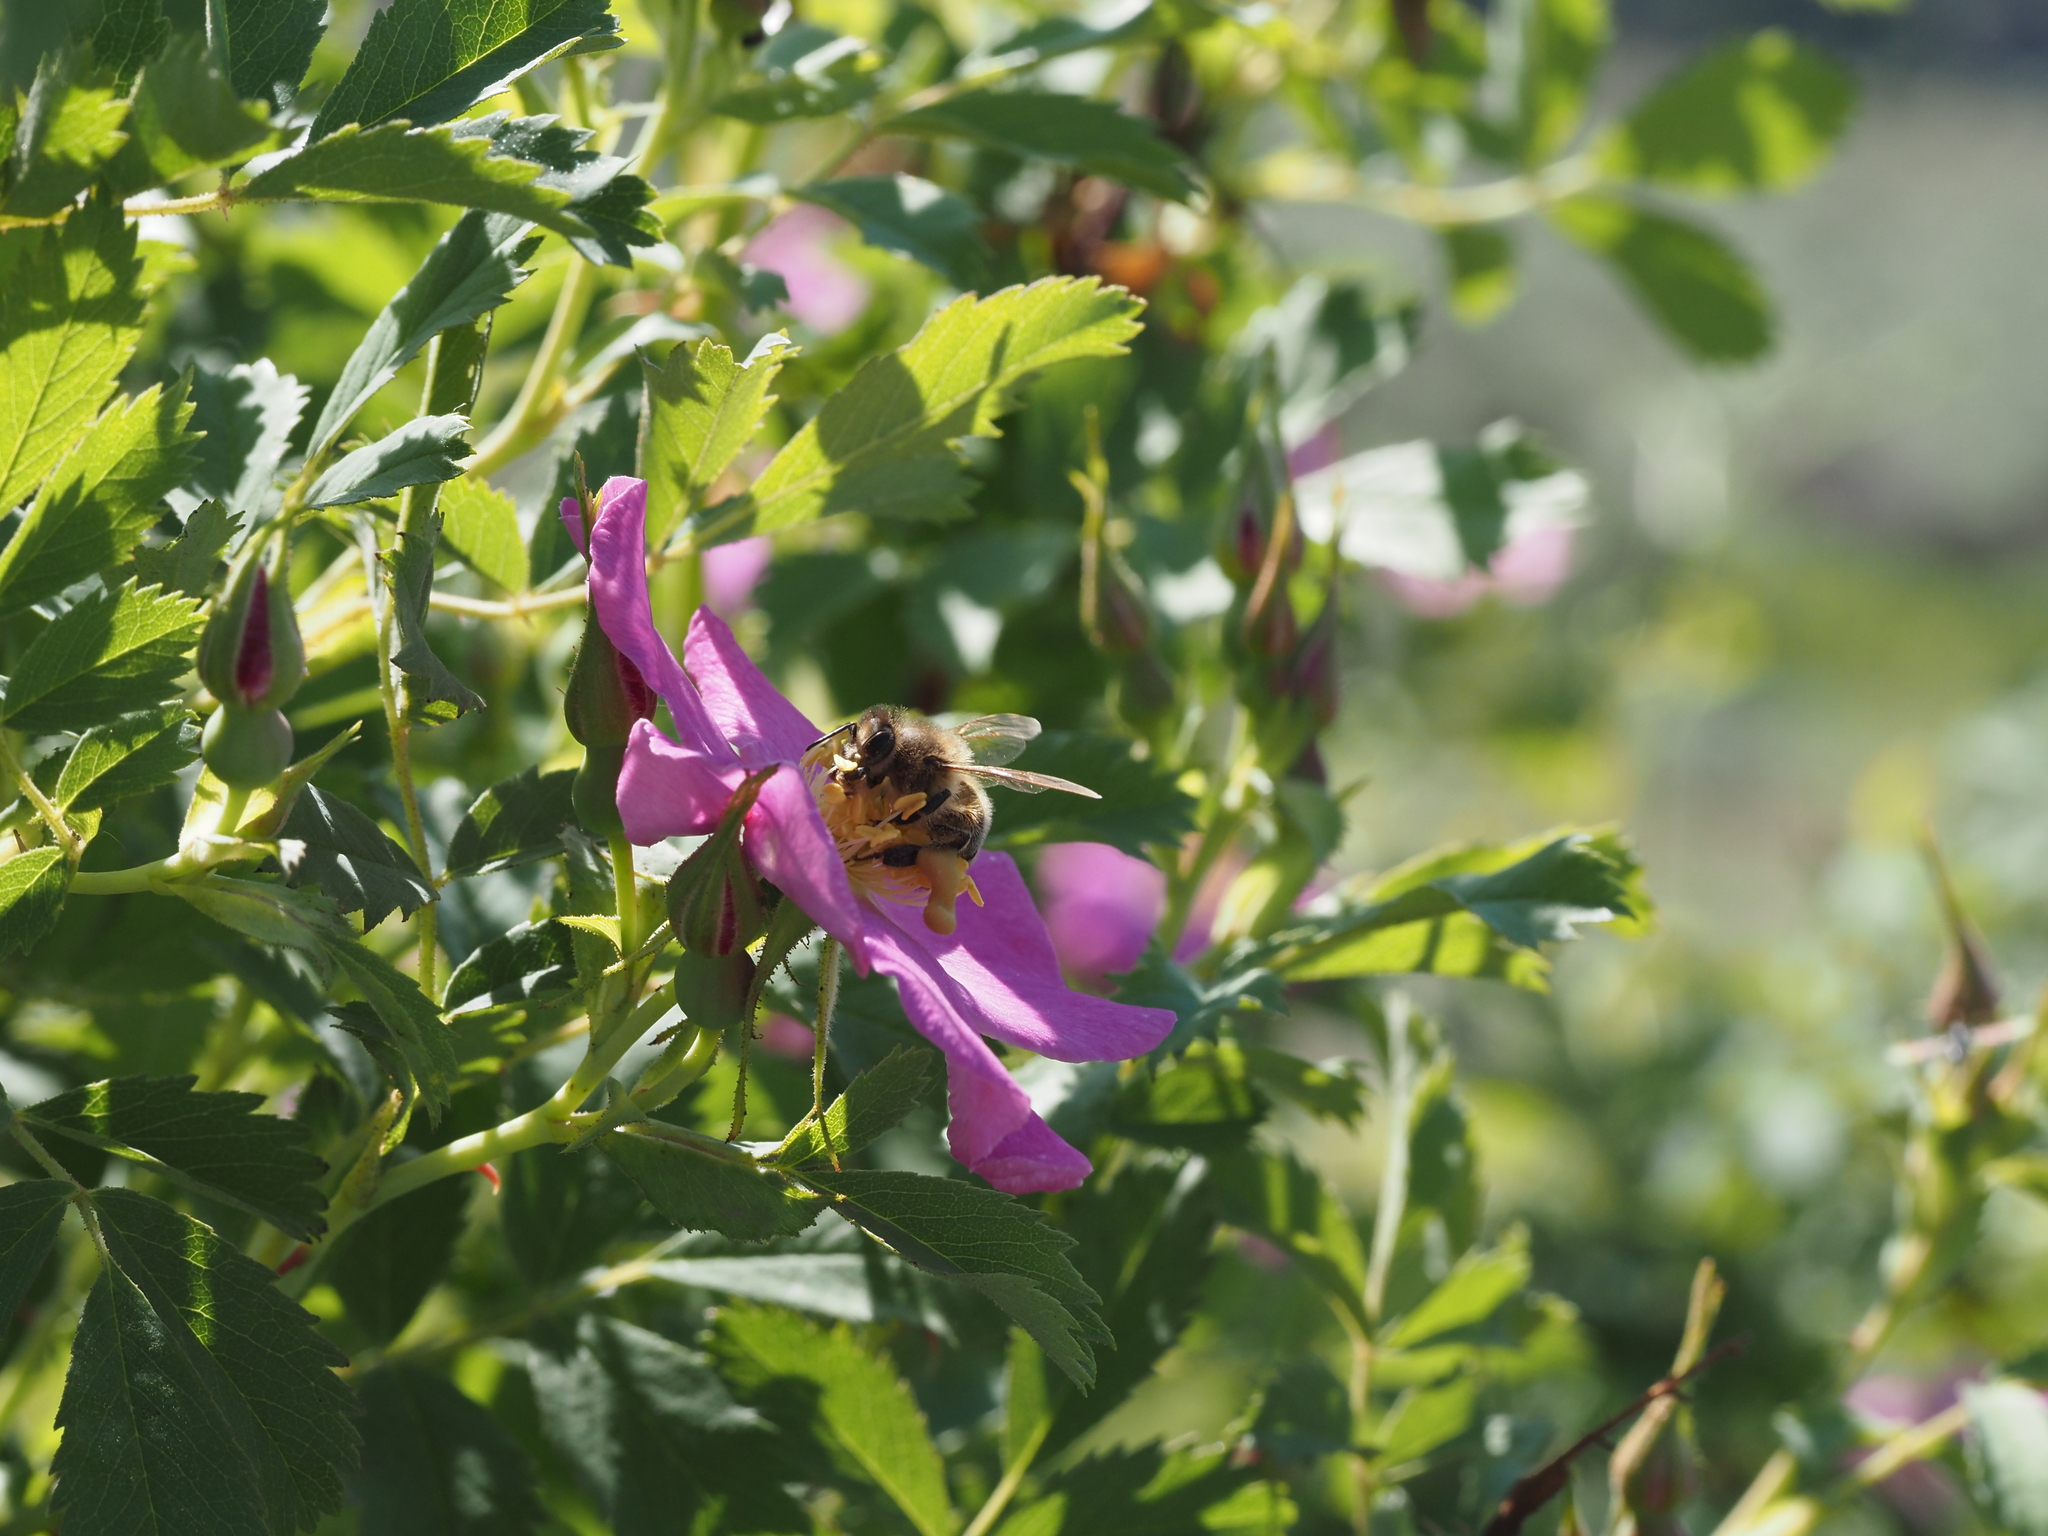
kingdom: Animalia
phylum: Arthropoda
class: Insecta
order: Hymenoptera
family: Apidae
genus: Apis
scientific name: Apis mellifera
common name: Honey bee
